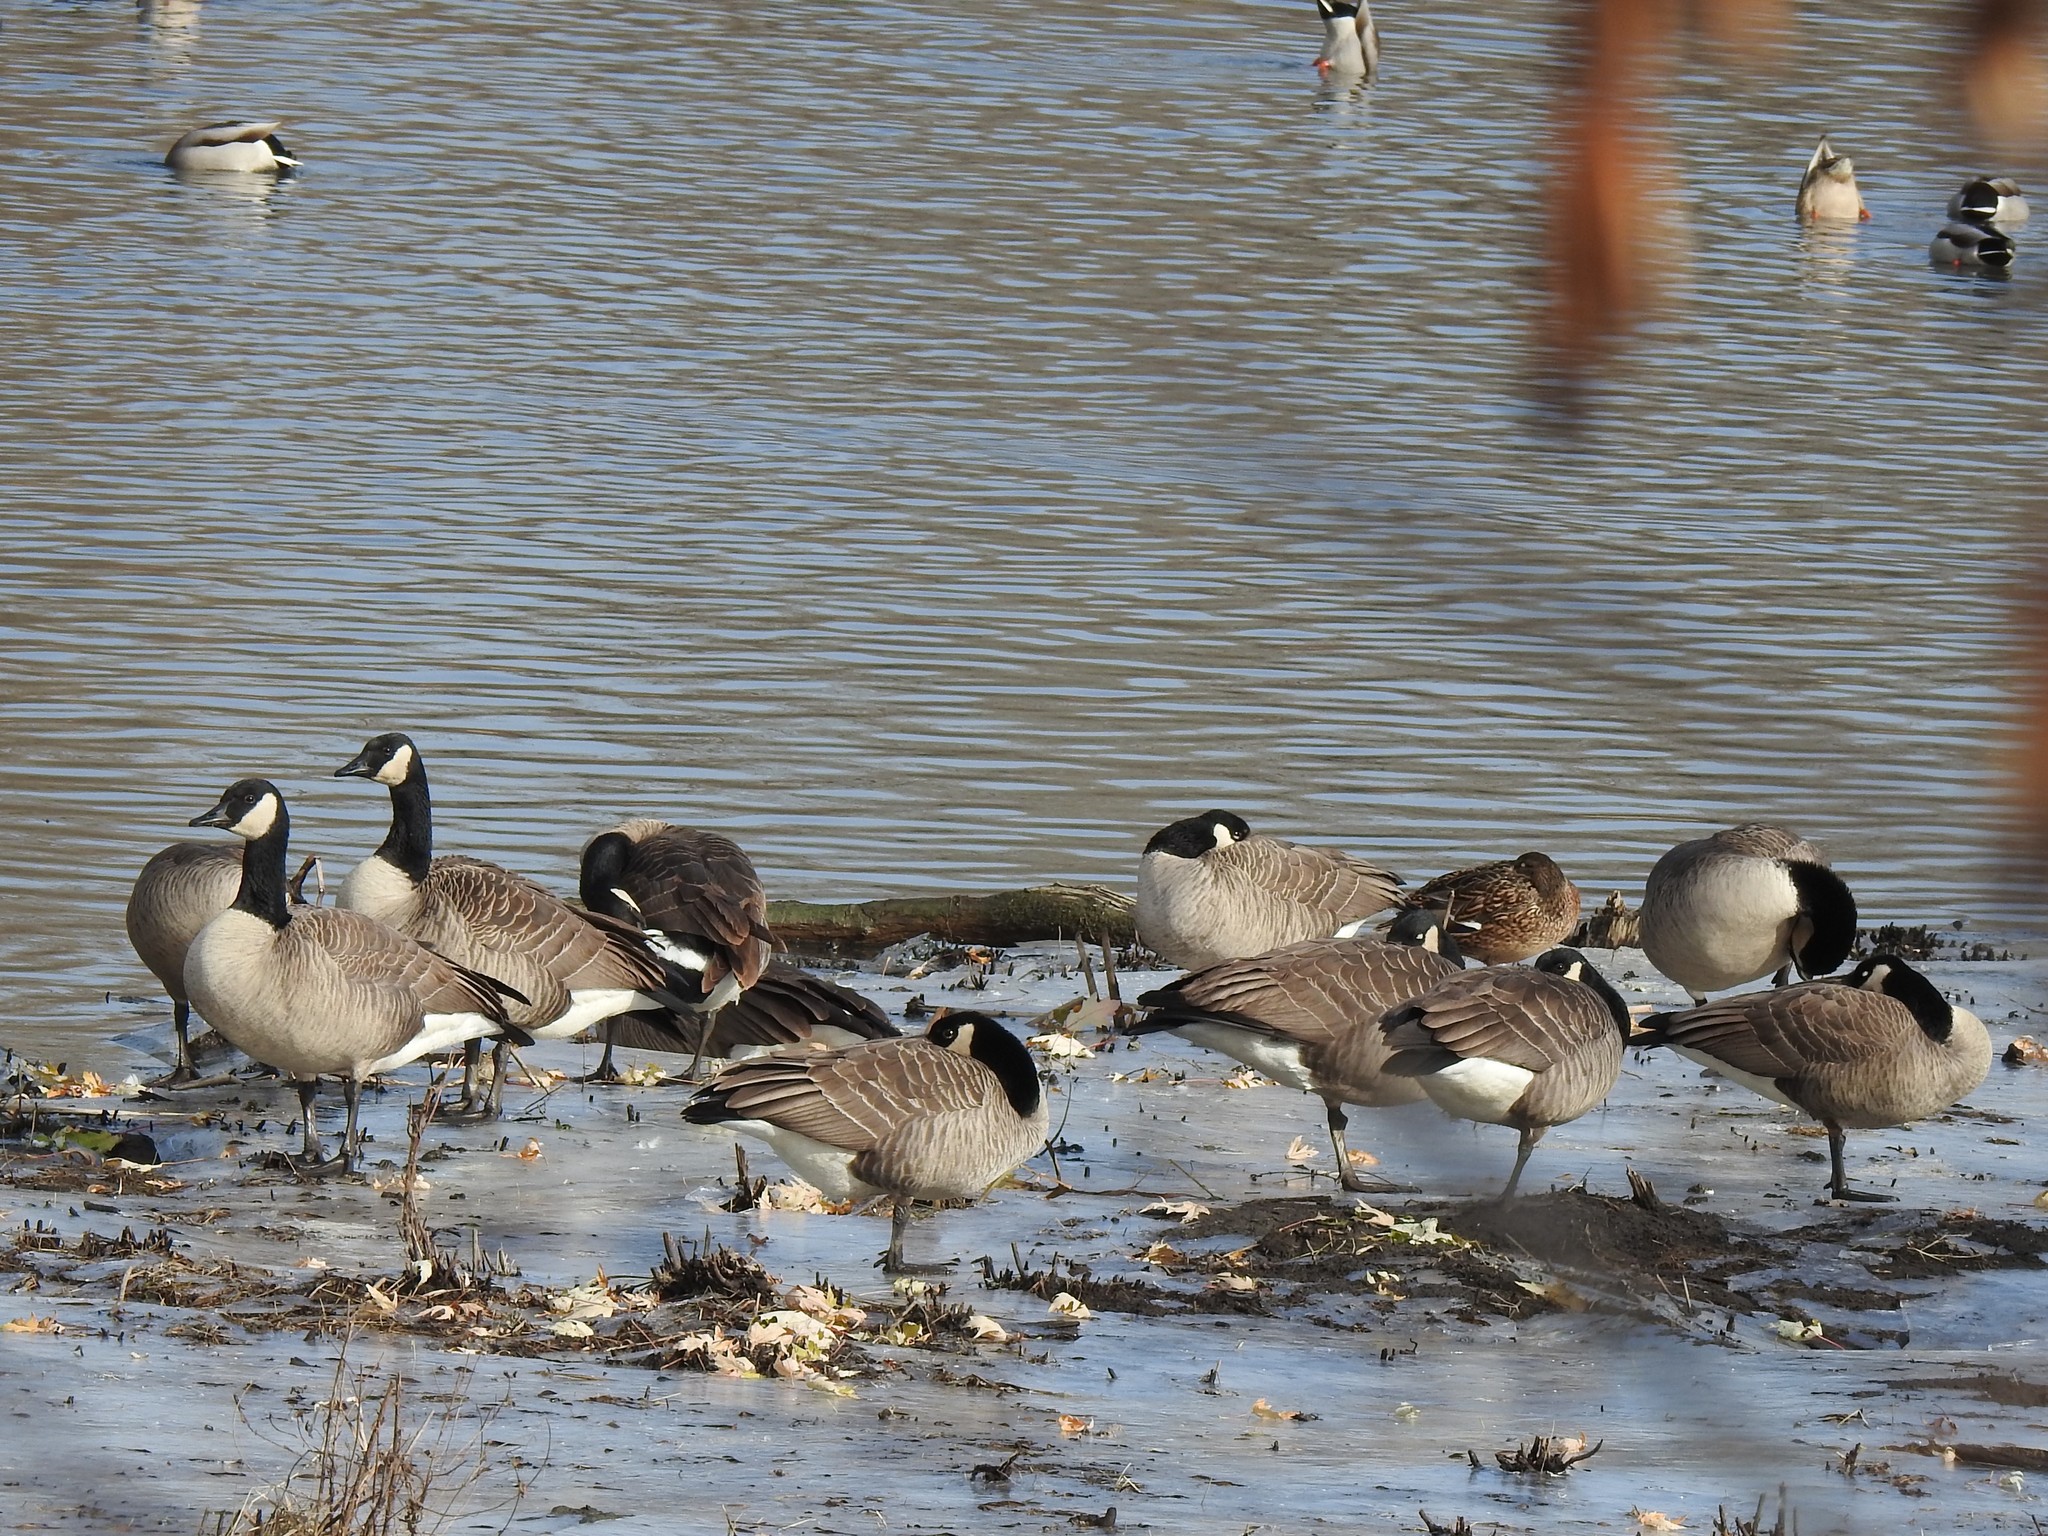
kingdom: Animalia
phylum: Chordata
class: Aves
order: Anseriformes
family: Anatidae
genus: Branta
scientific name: Branta canadensis
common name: Canada goose
